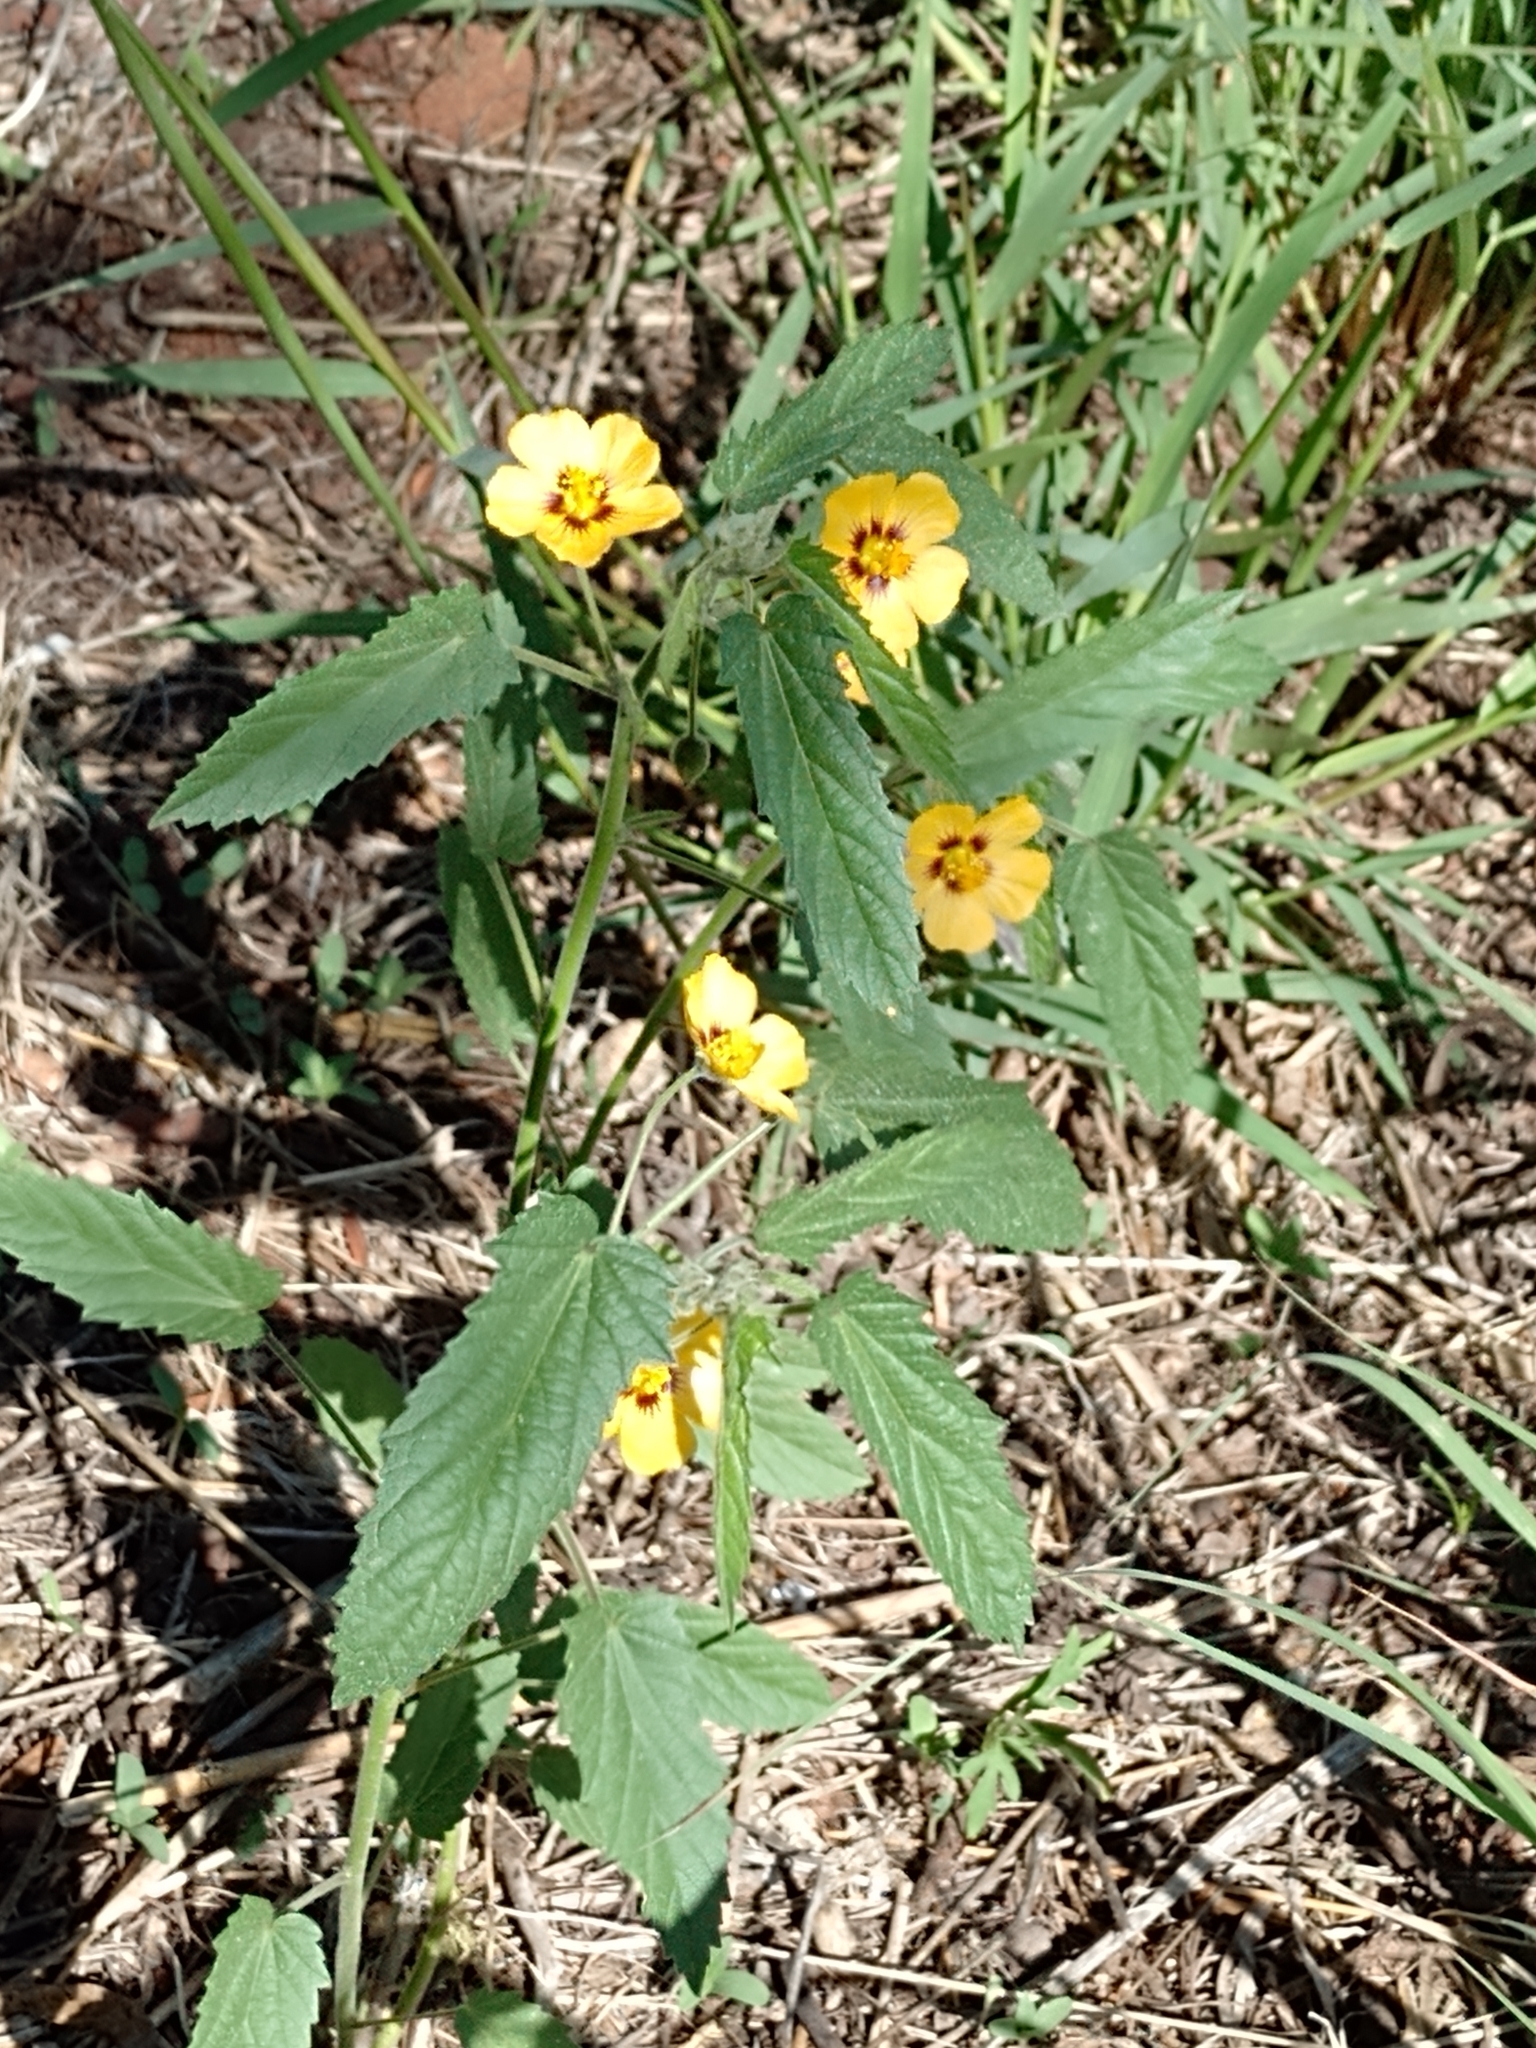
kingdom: Plantae
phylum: Tracheophyta
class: Magnoliopsida
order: Malvales
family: Malvaceae
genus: Gaya
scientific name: Gaya parviflora
